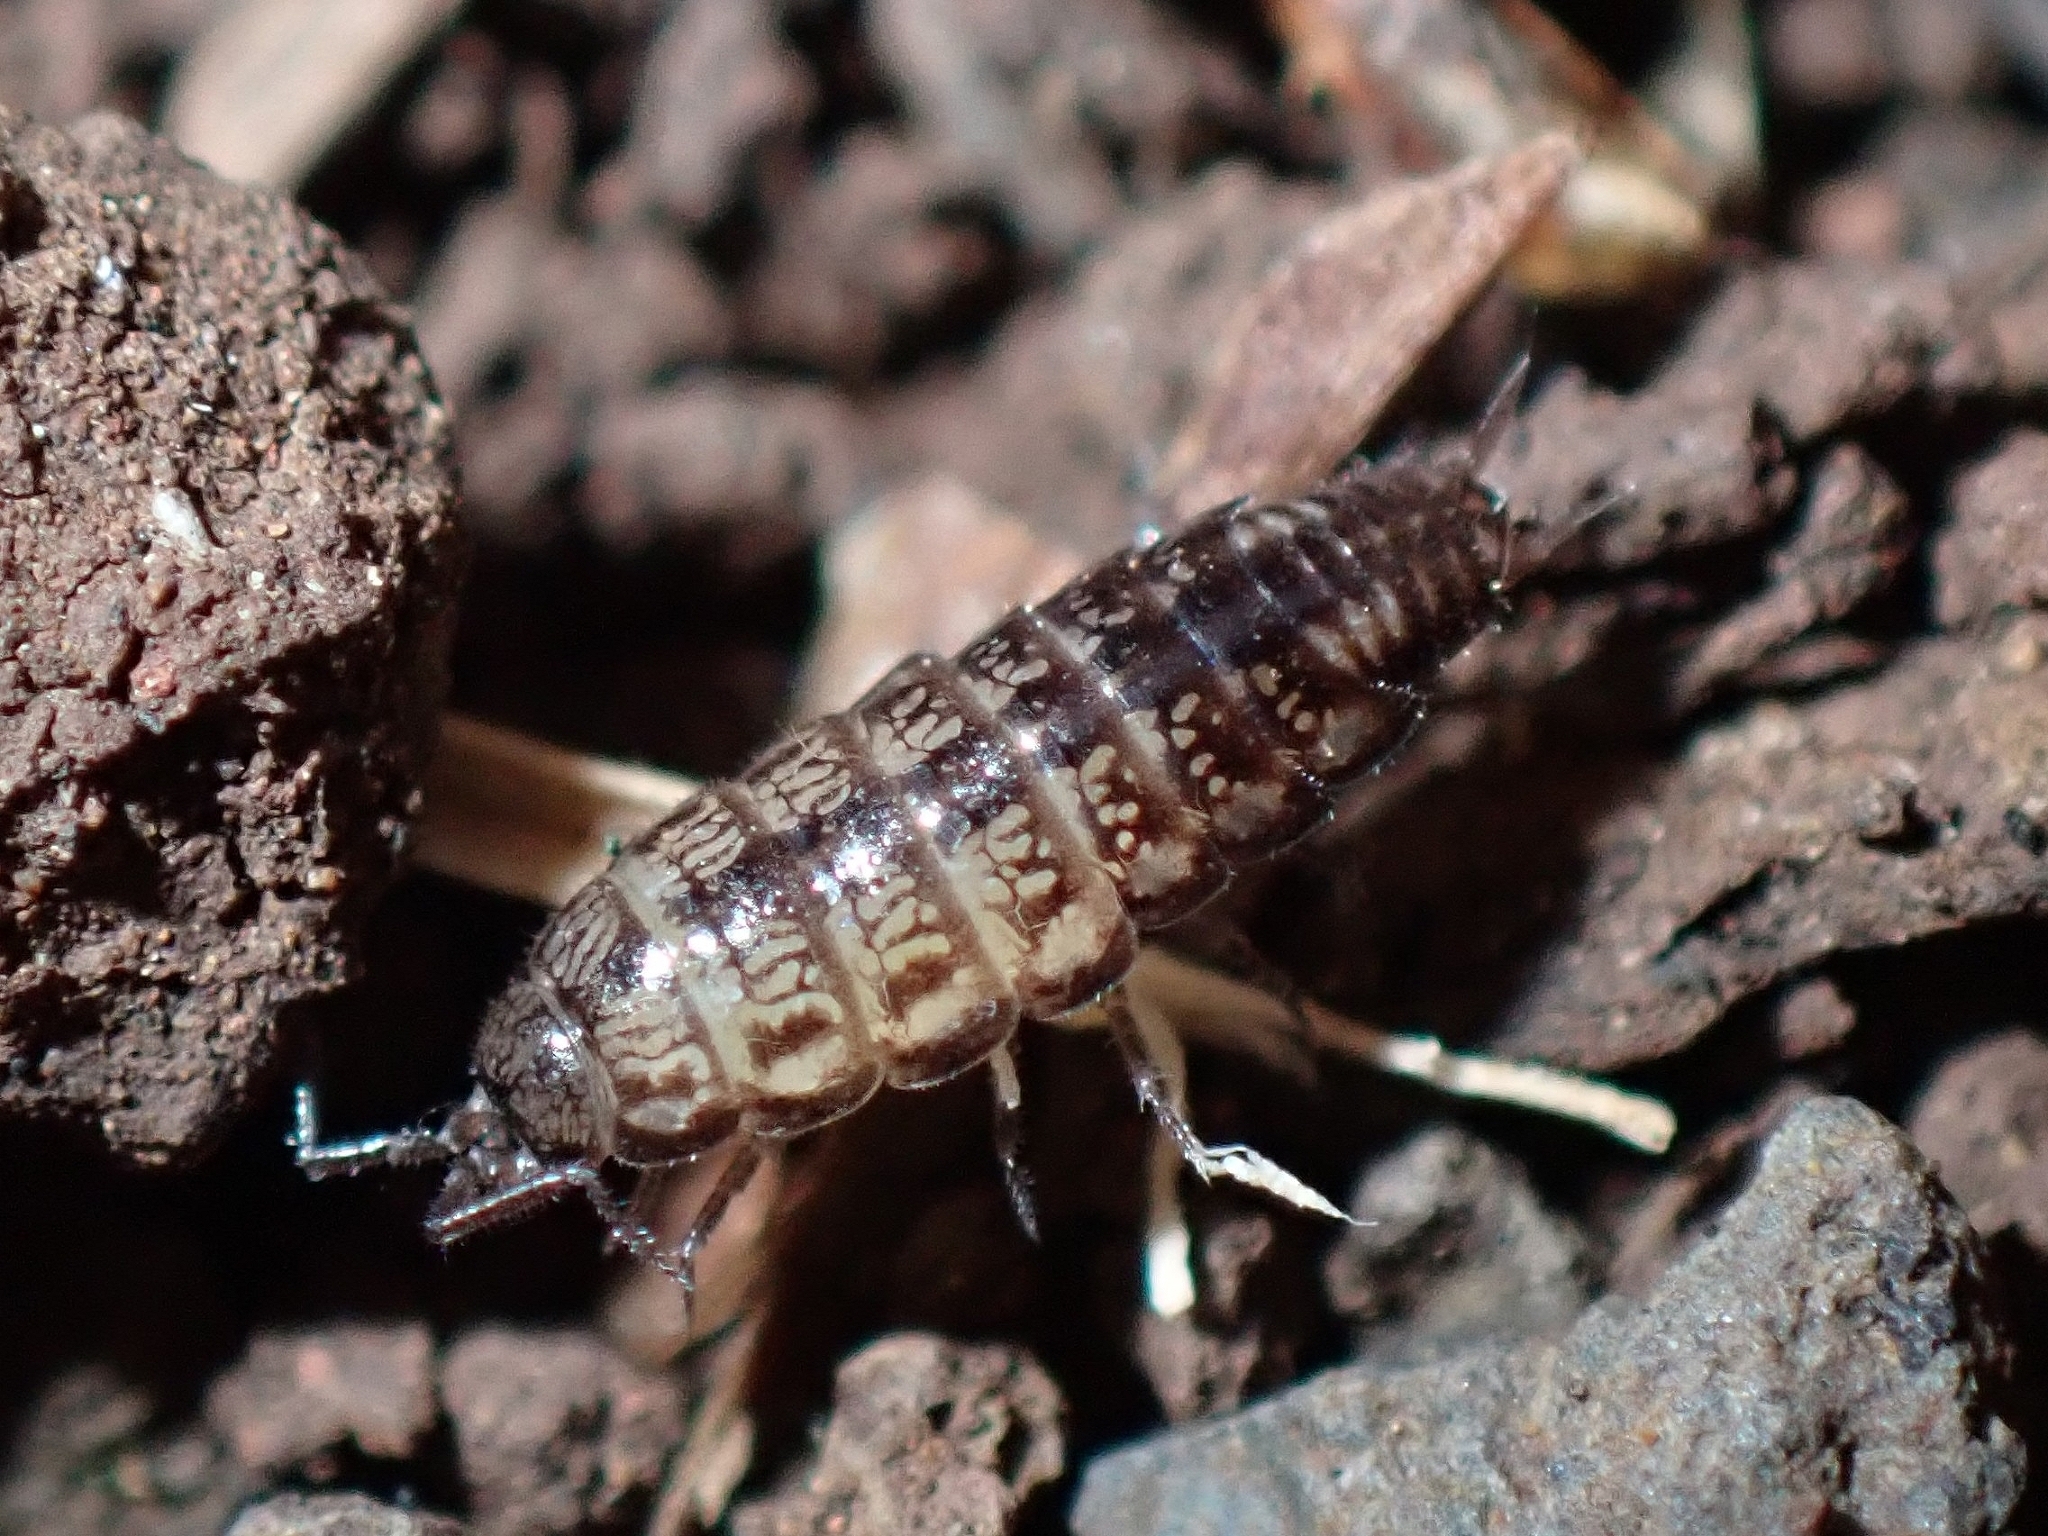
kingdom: Animalia
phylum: Arthropoda
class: Malacostraca
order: Isopoda
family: Philosciidae
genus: Ctenoscia
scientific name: Ctenoscia minima
